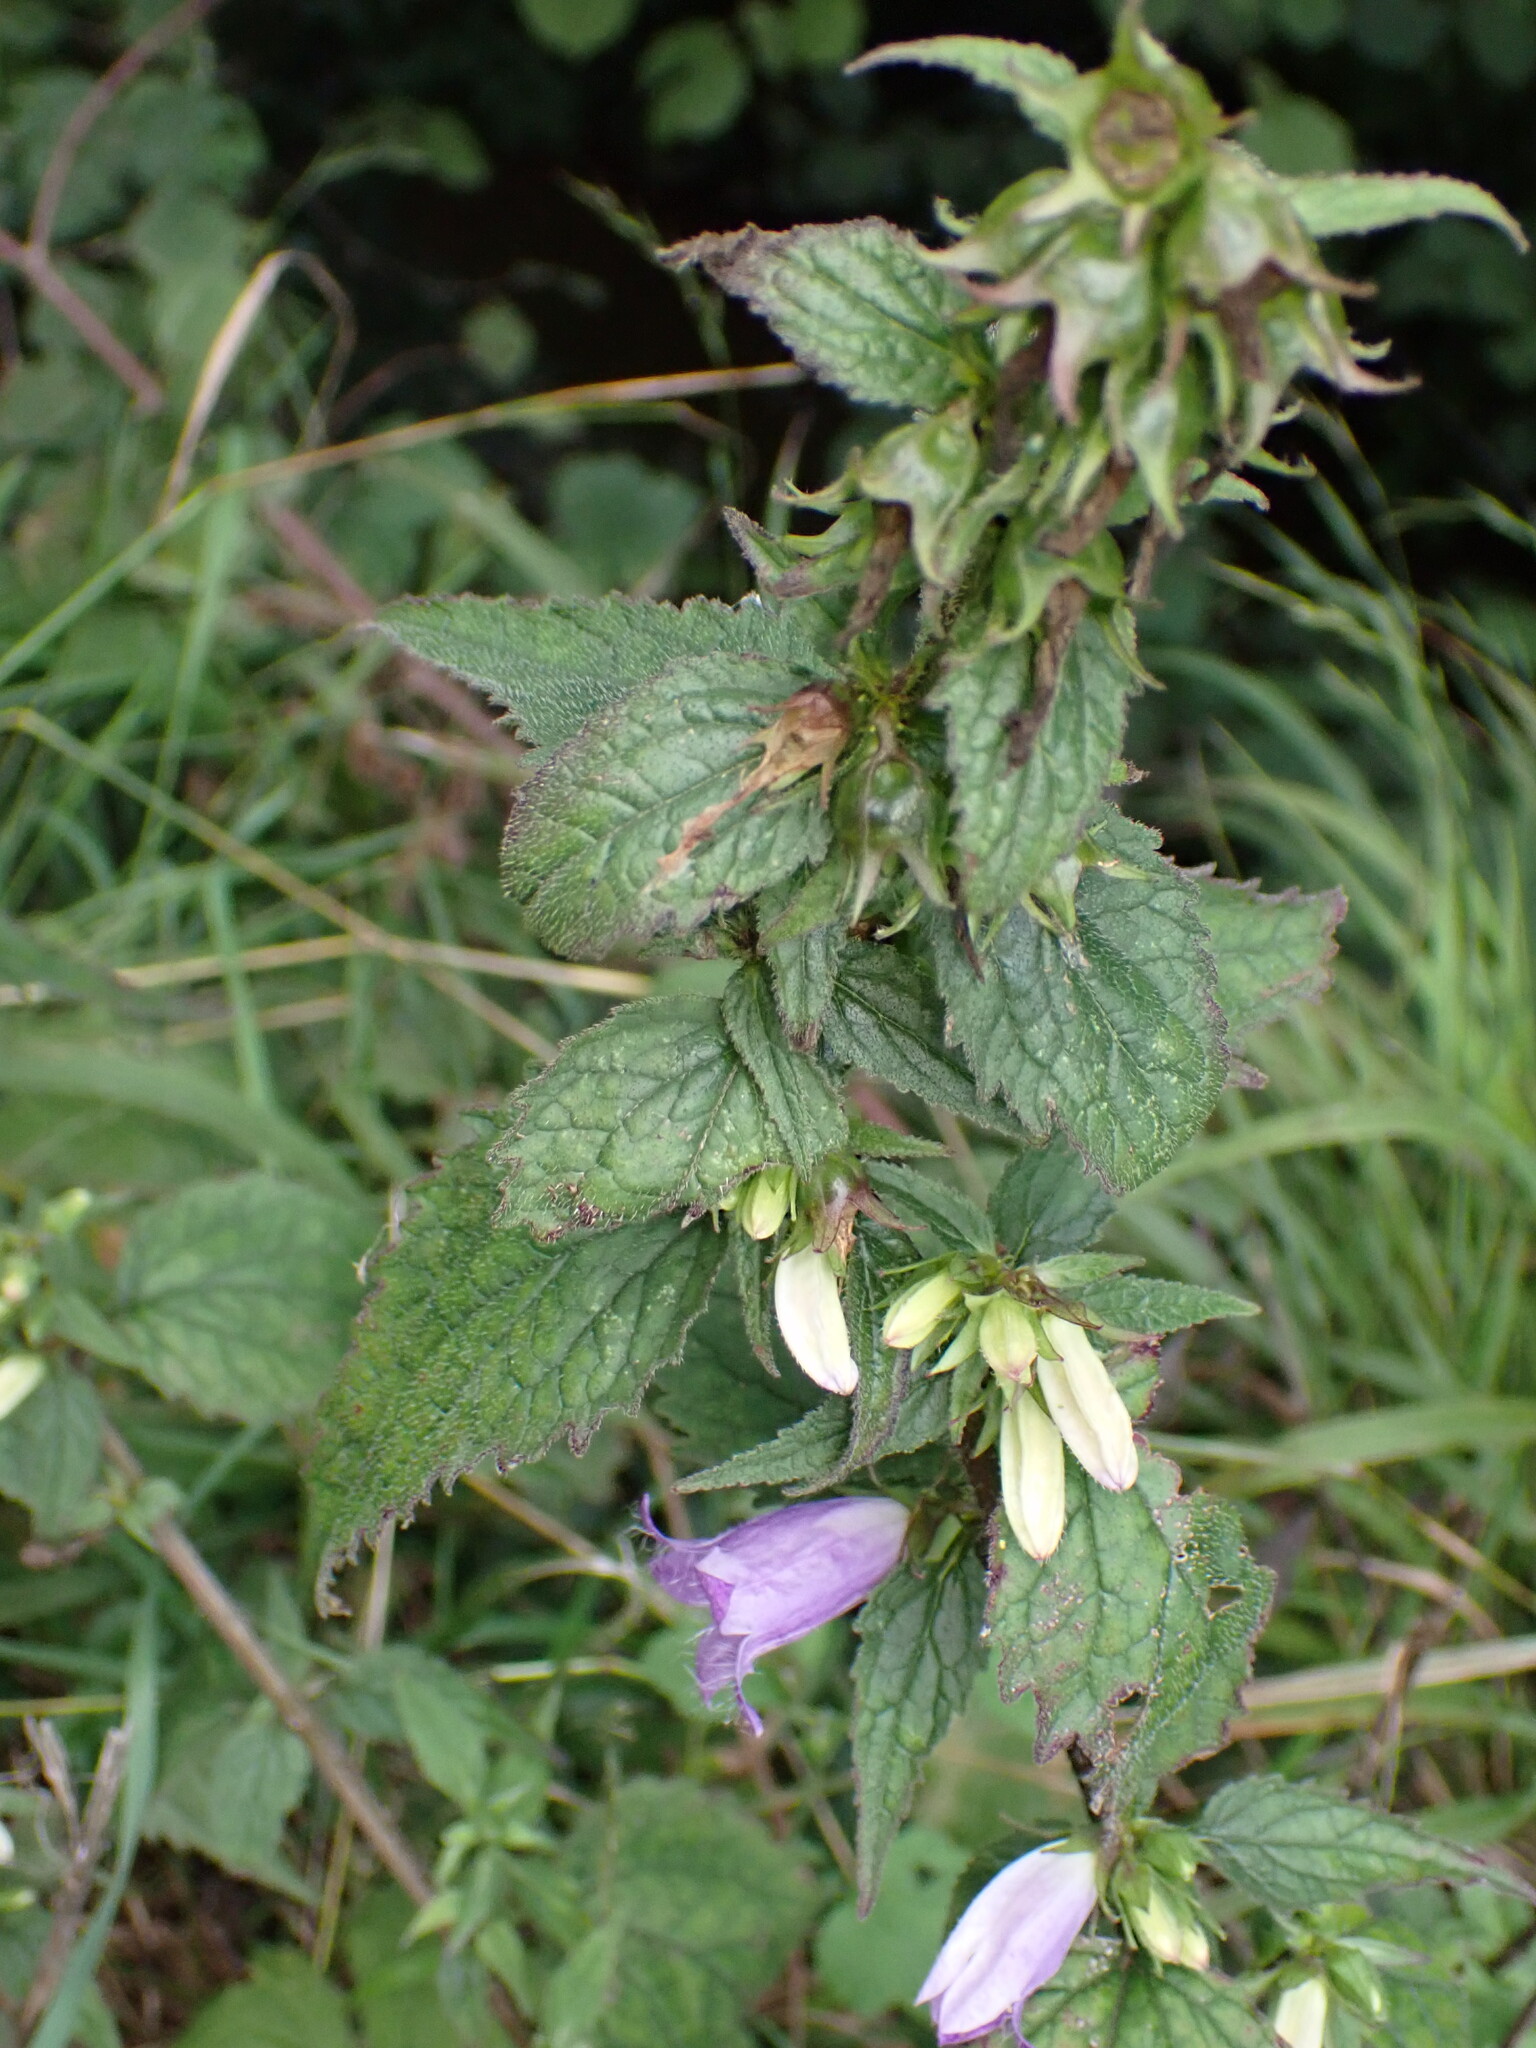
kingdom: Plantae
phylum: Tracheophyta
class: Magnoliopsida
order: Asterales
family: Campanulaceae
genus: Campanula
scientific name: Campanula trachelium
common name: Nettle-leaved bellflower
